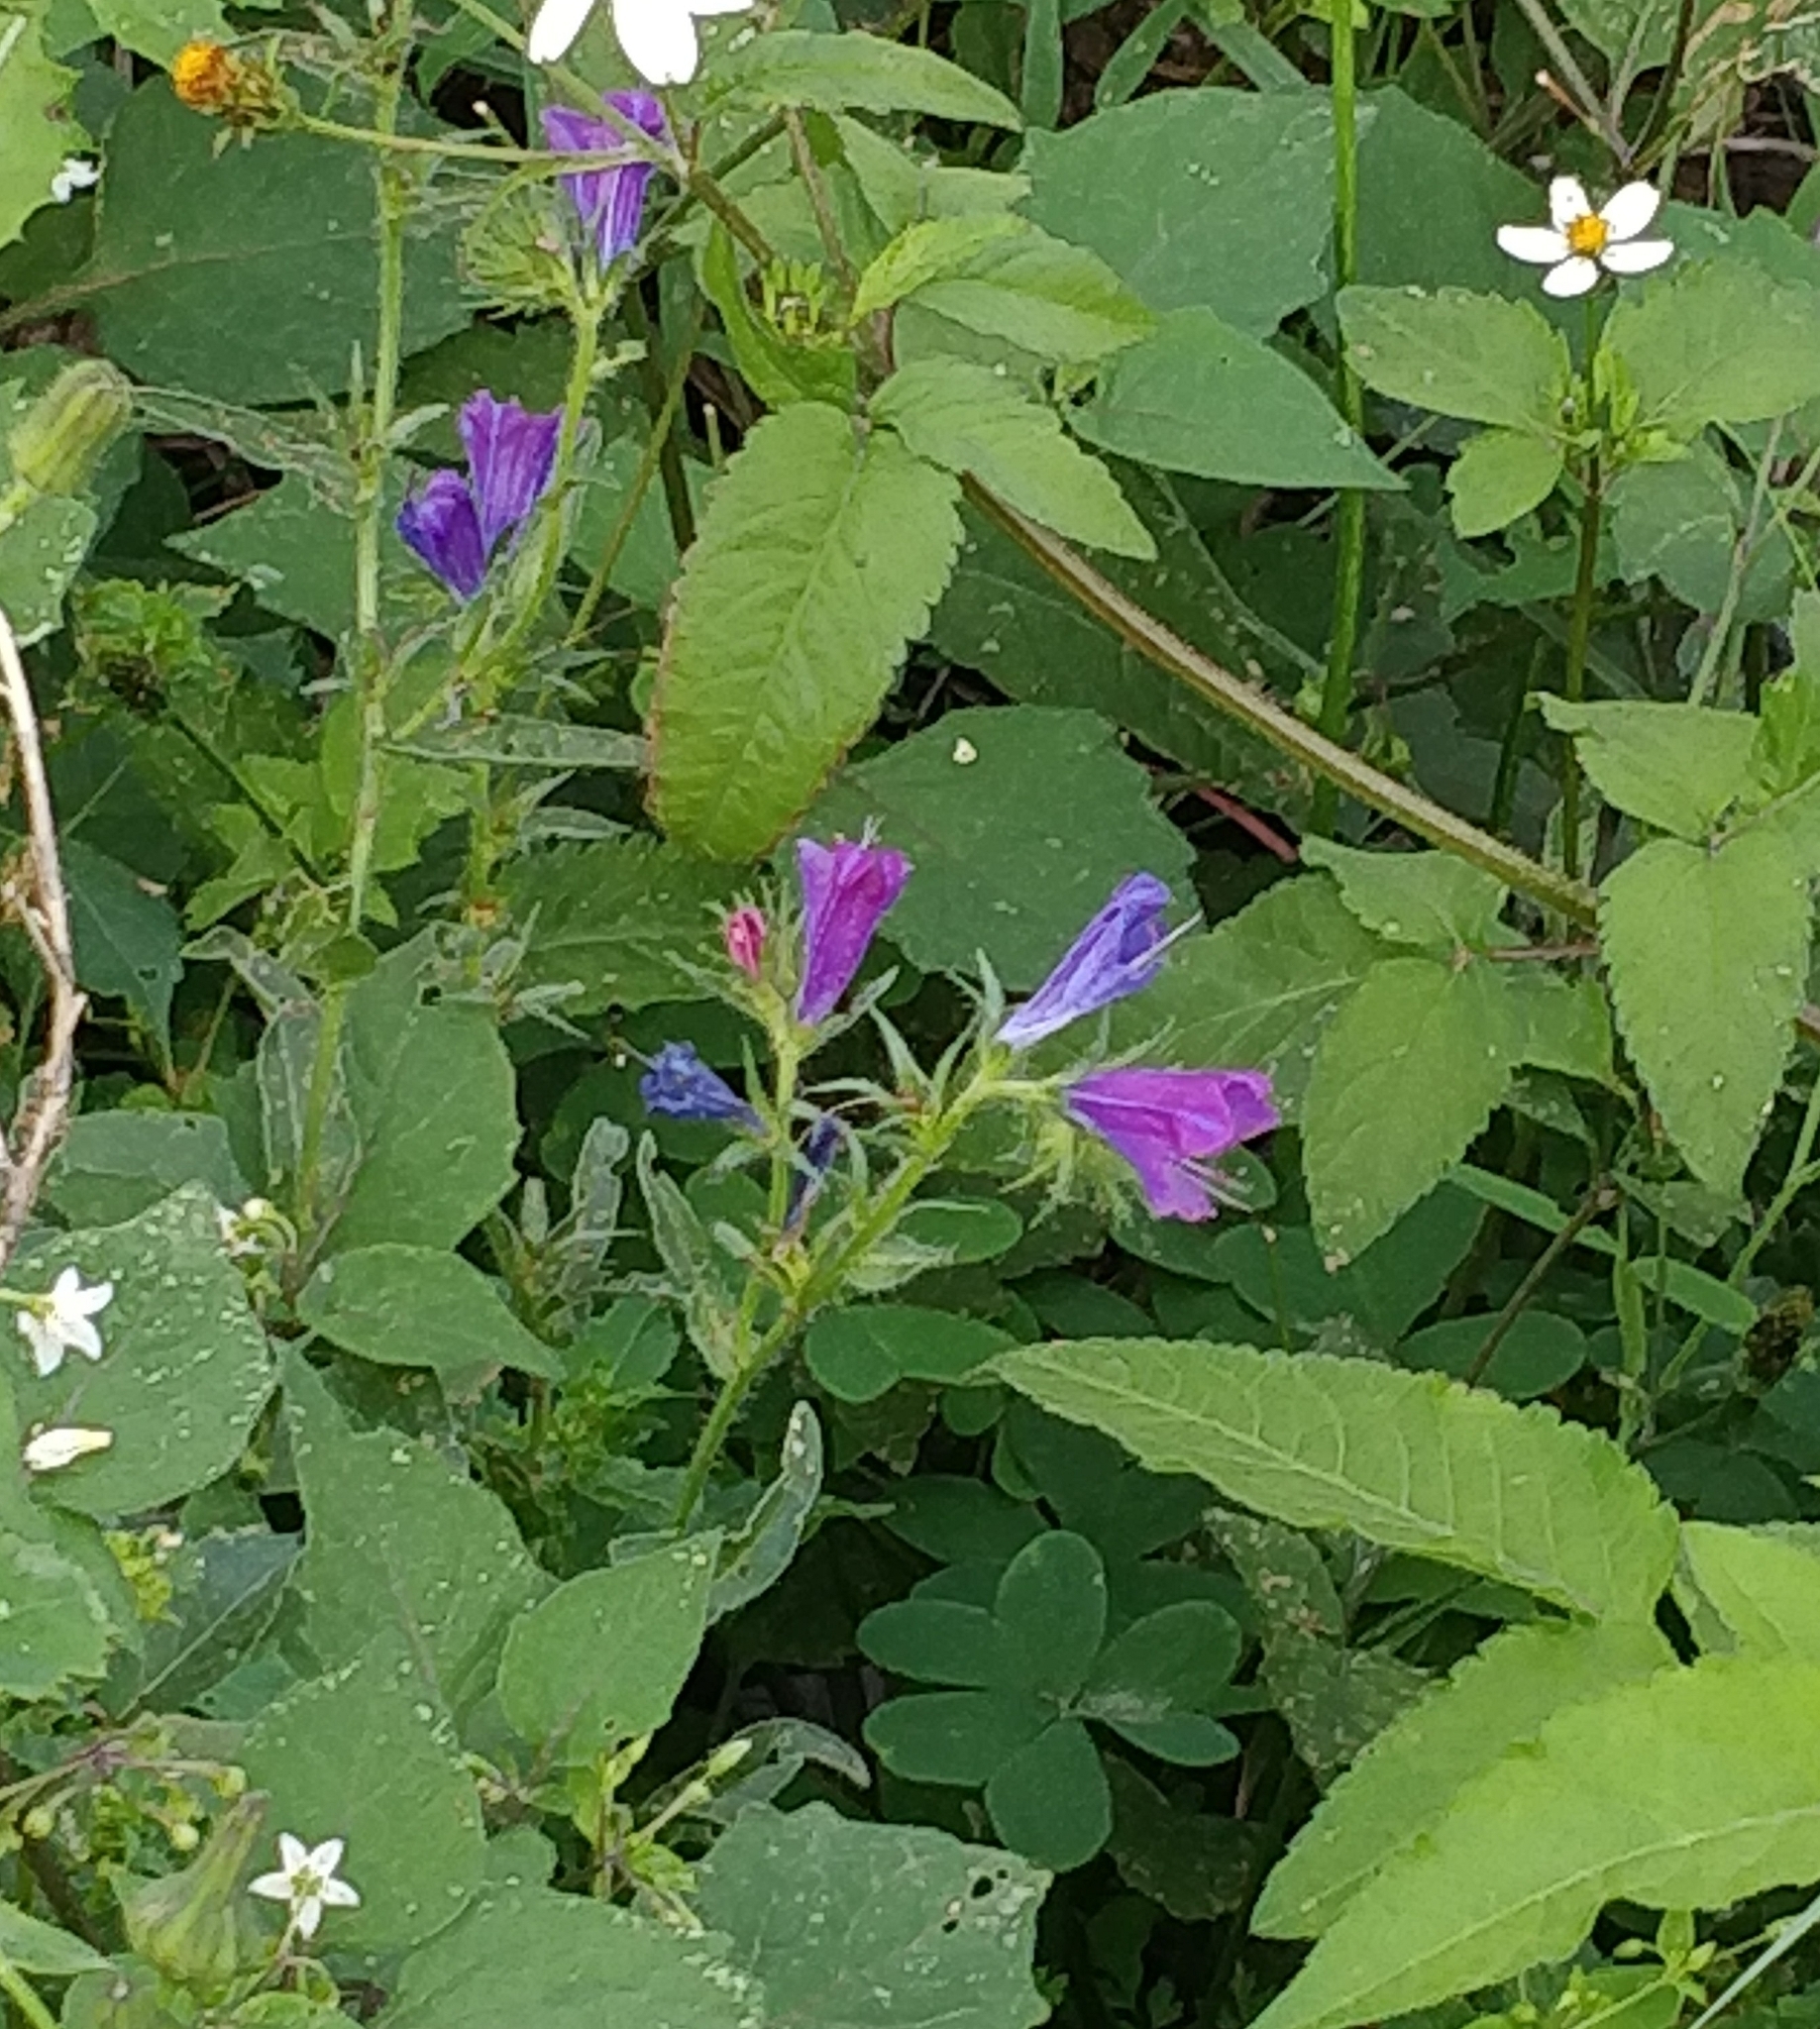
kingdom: Plantae
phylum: Tracheophyta
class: Magnoliopsida
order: Boraginales
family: Boraginaceae
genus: Echium
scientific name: Echium plantagineum
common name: Purple viper's-bugloss
